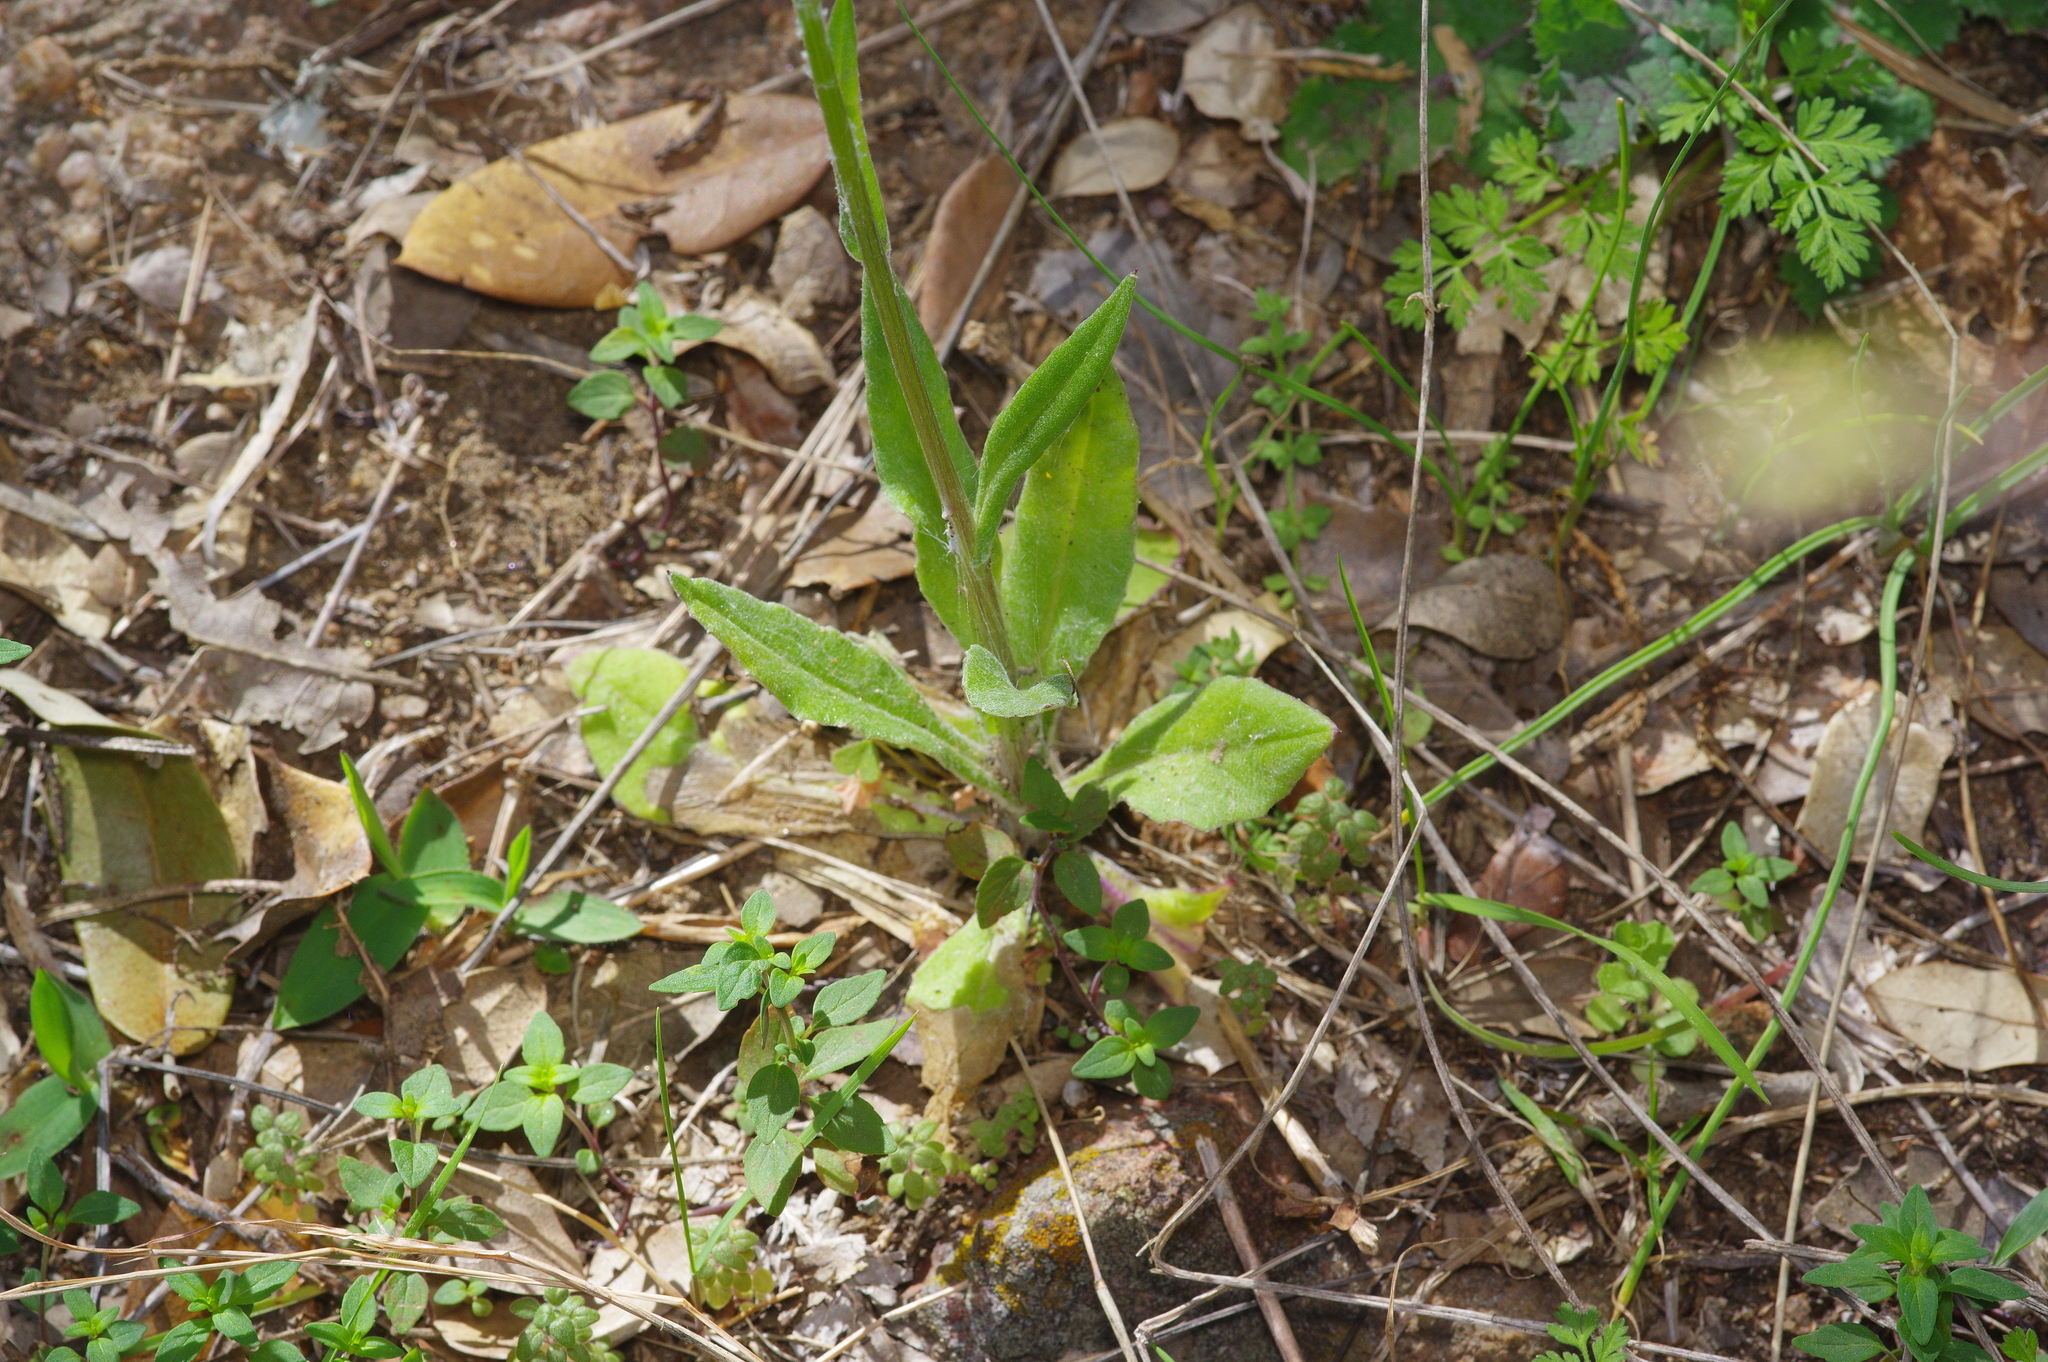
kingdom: Plantae
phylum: Tracheophyta
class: Magnoliopsida
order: Asterales
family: Asteraceae
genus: Senecio
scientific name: Senecio ampullaceus
